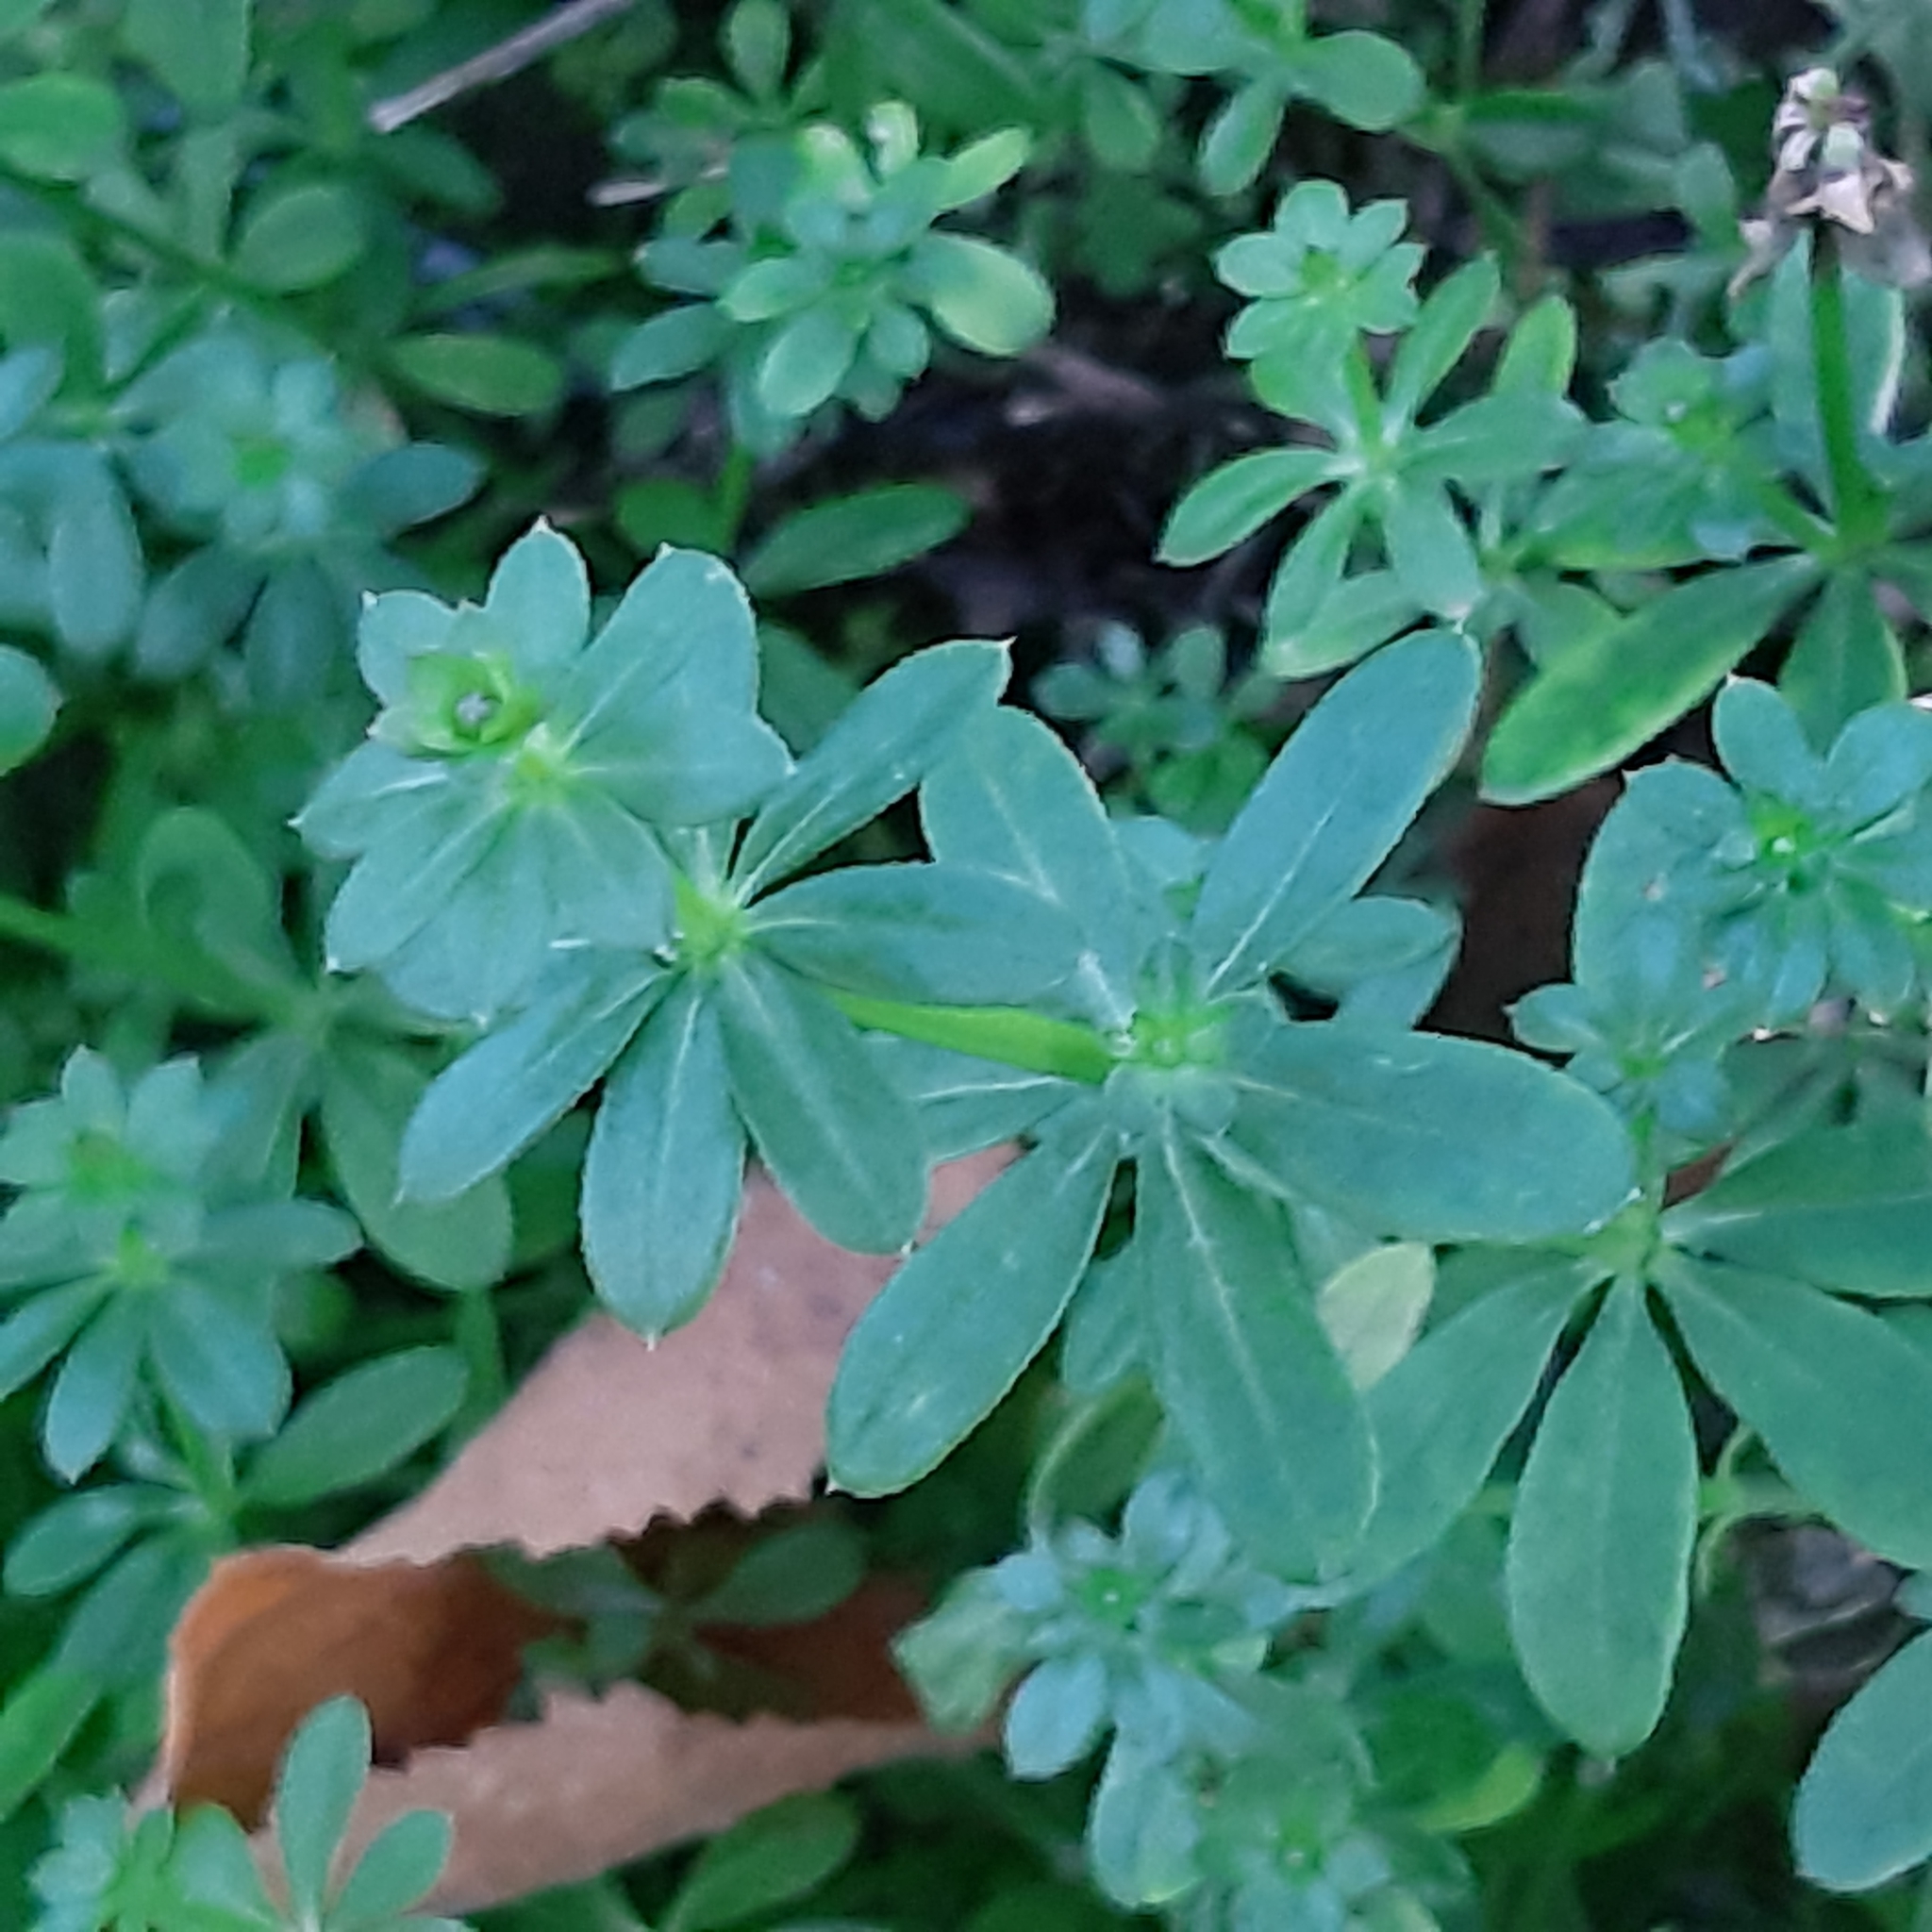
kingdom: Plantae
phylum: Tracheophyta
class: Magnoliopsida
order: Gentianales
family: Rubiaceae
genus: Galium
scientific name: Galium mollugo
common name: Hedge bedstraw
